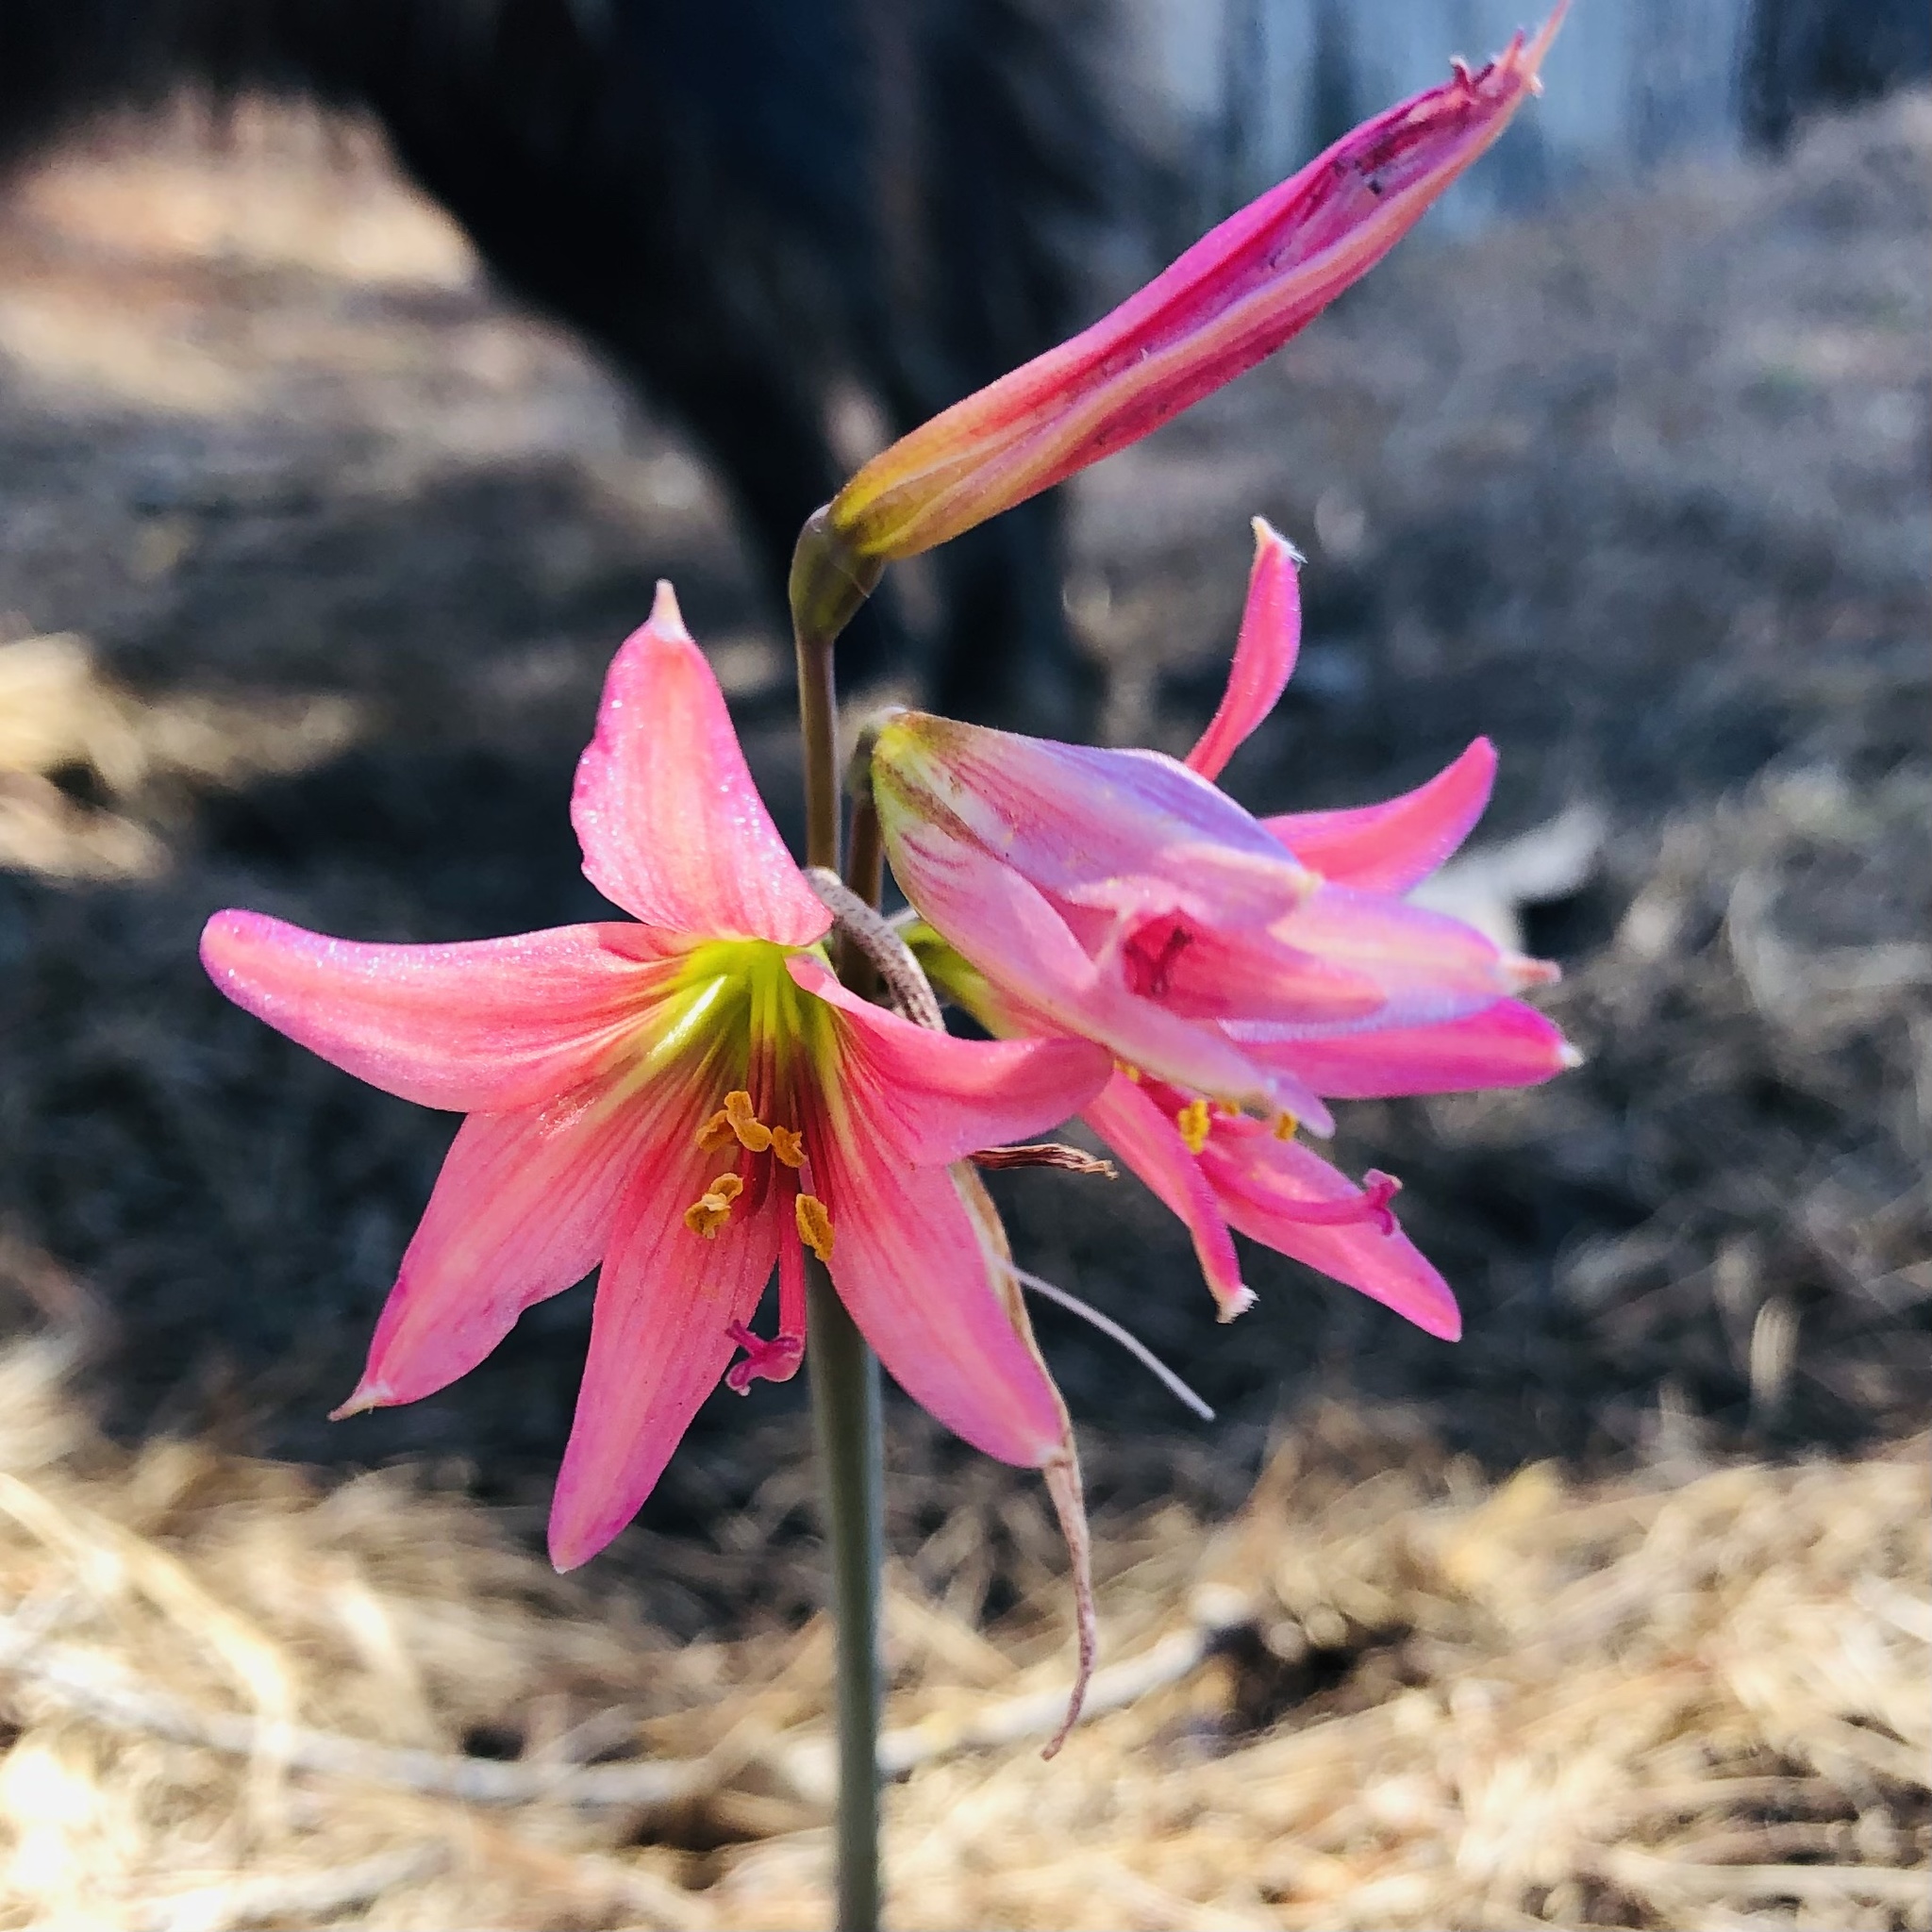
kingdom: Plantae
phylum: Tracheophyta
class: Liliopsida
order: Asparagales
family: Amaryllidaceae
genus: Zephyranthes
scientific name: Zephyranthes advena
